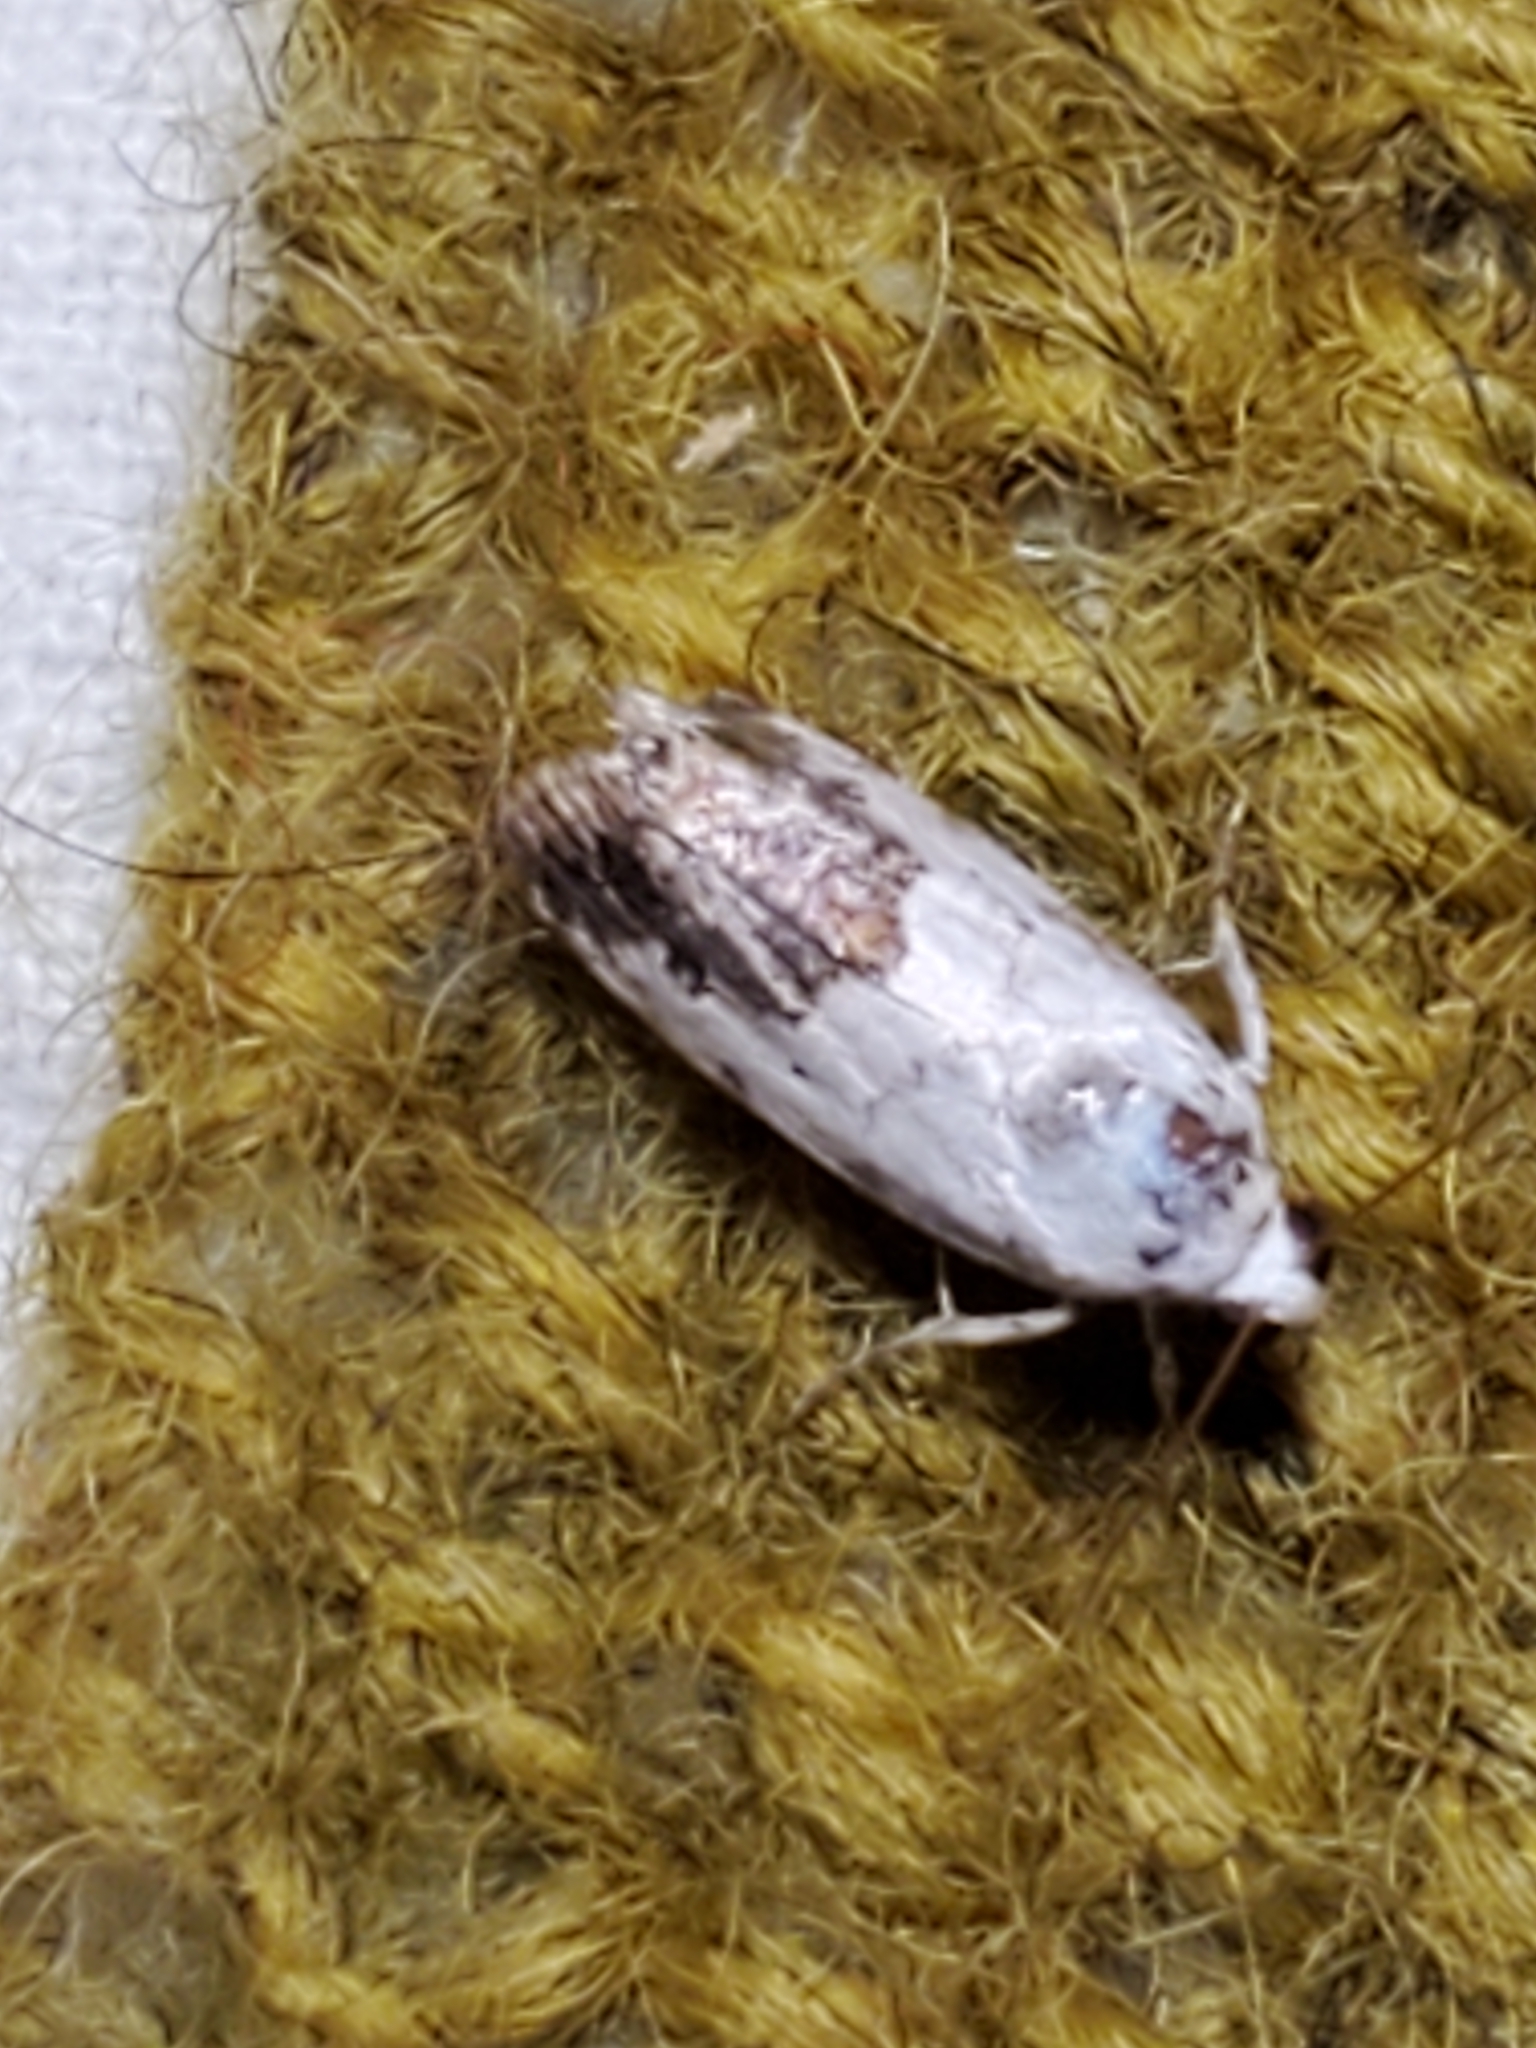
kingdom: Animalia
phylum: Arthropoda
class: Insecta
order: Lepidoptera
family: Noctuidae
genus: Acontia
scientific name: Acontia phecolisca
